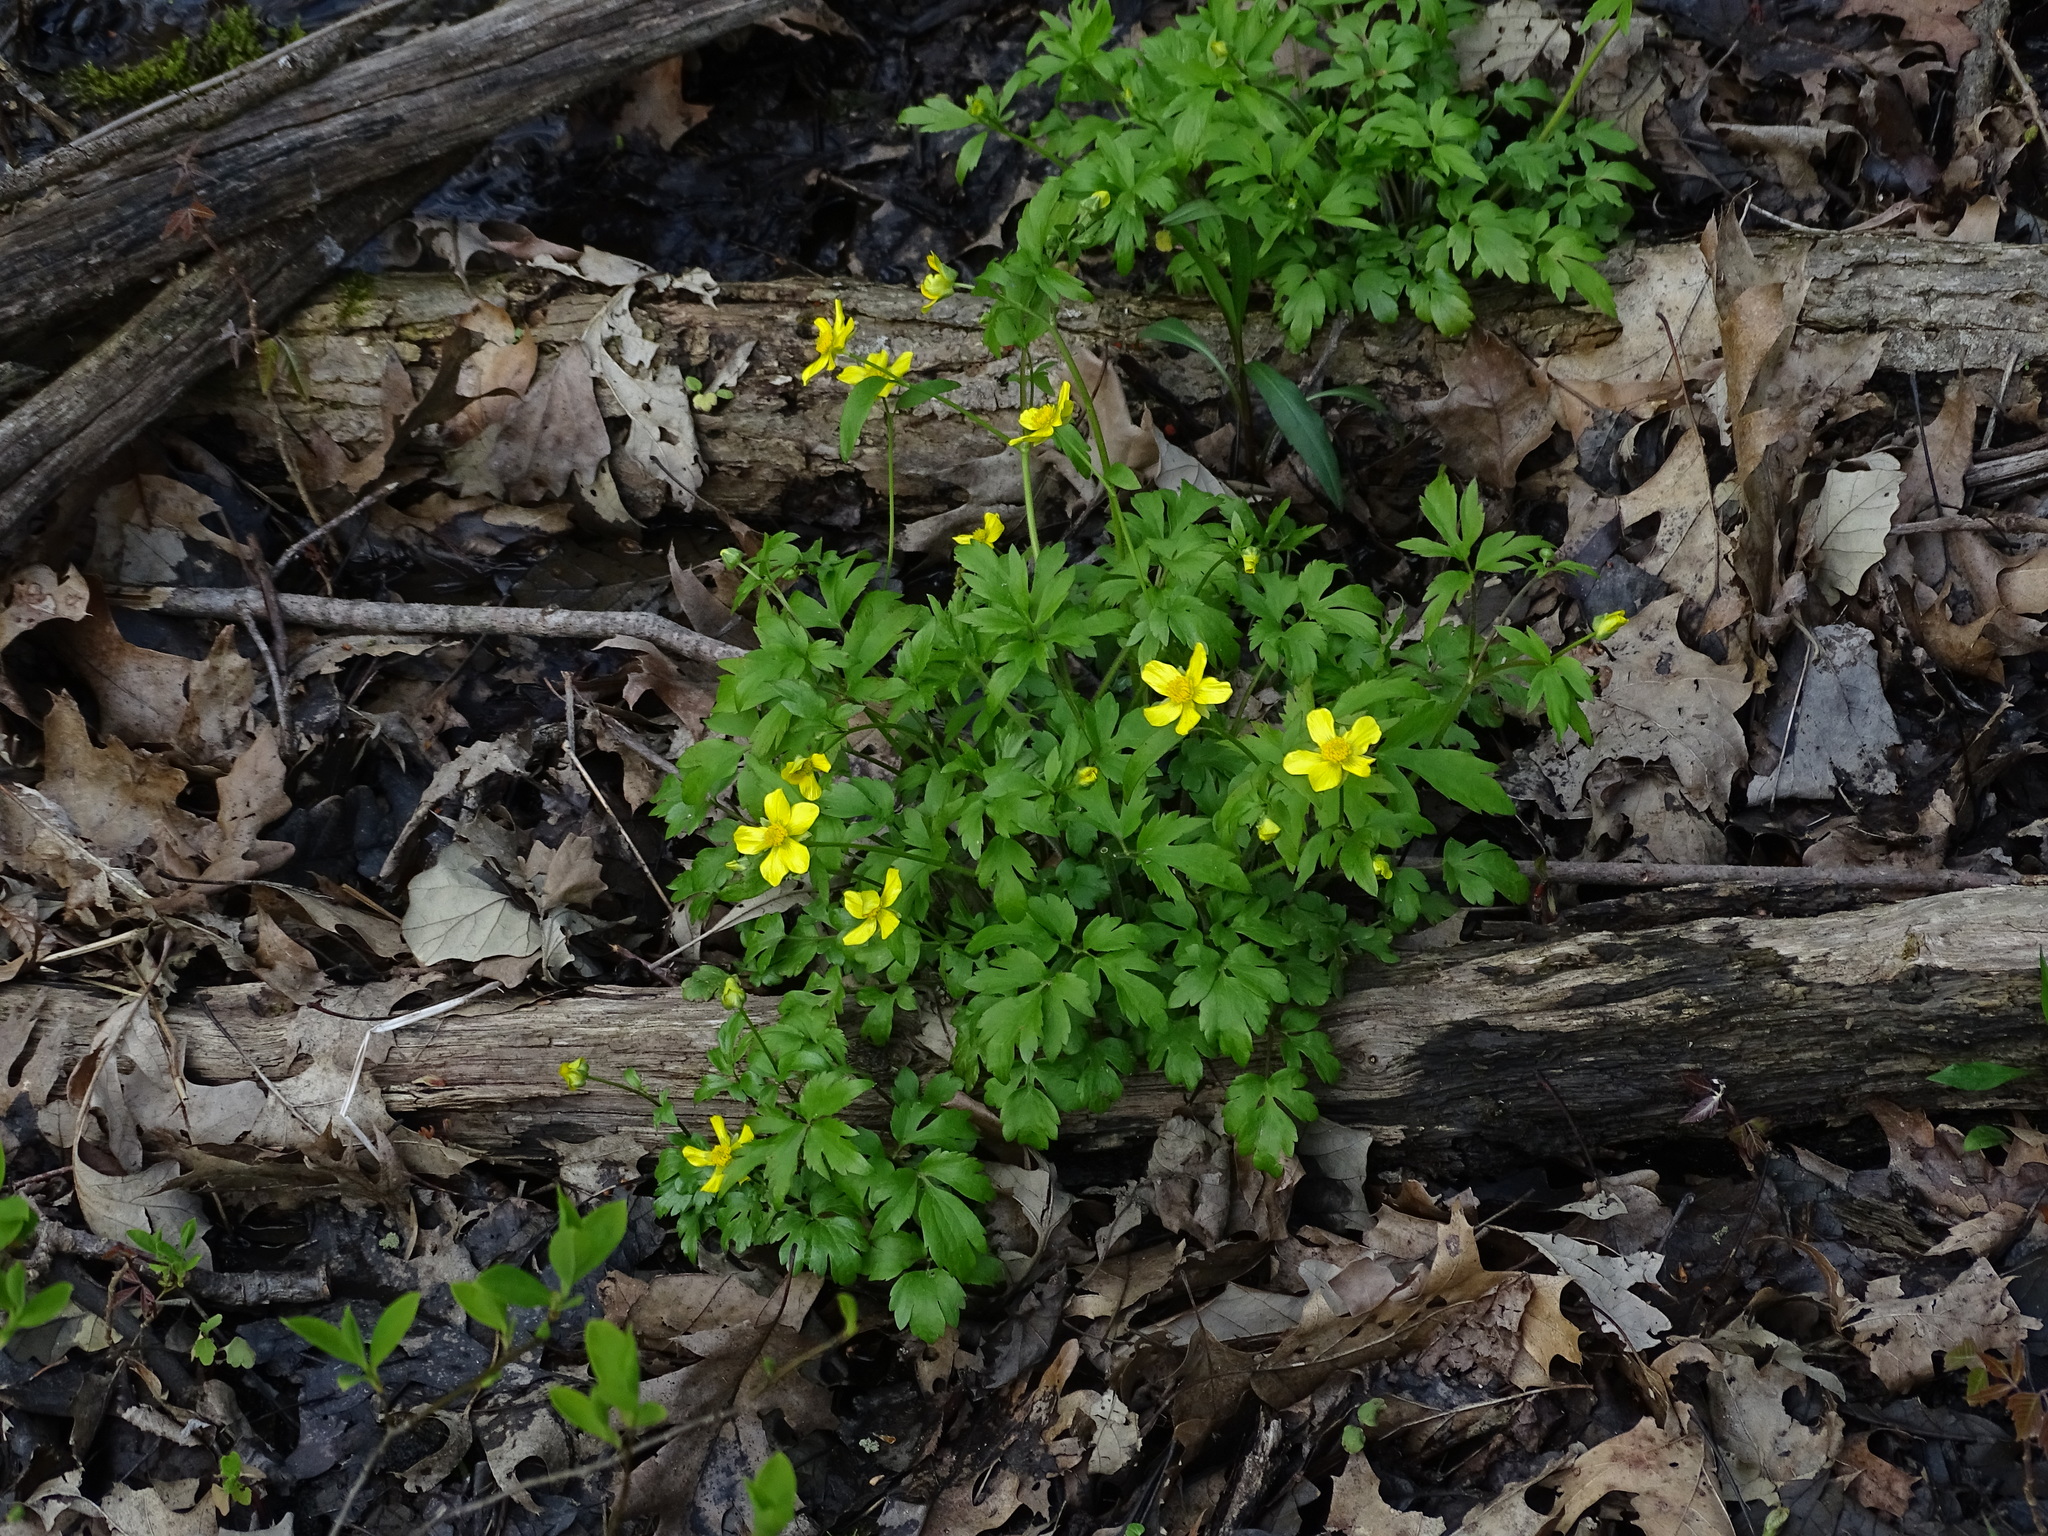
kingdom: Plantae
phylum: Tracheophyta
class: Magnoliopsida
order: Ranunculales
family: Ranunculaceae
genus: Ranunculus
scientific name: Ranunculus hispidus
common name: Bristly buttercup
